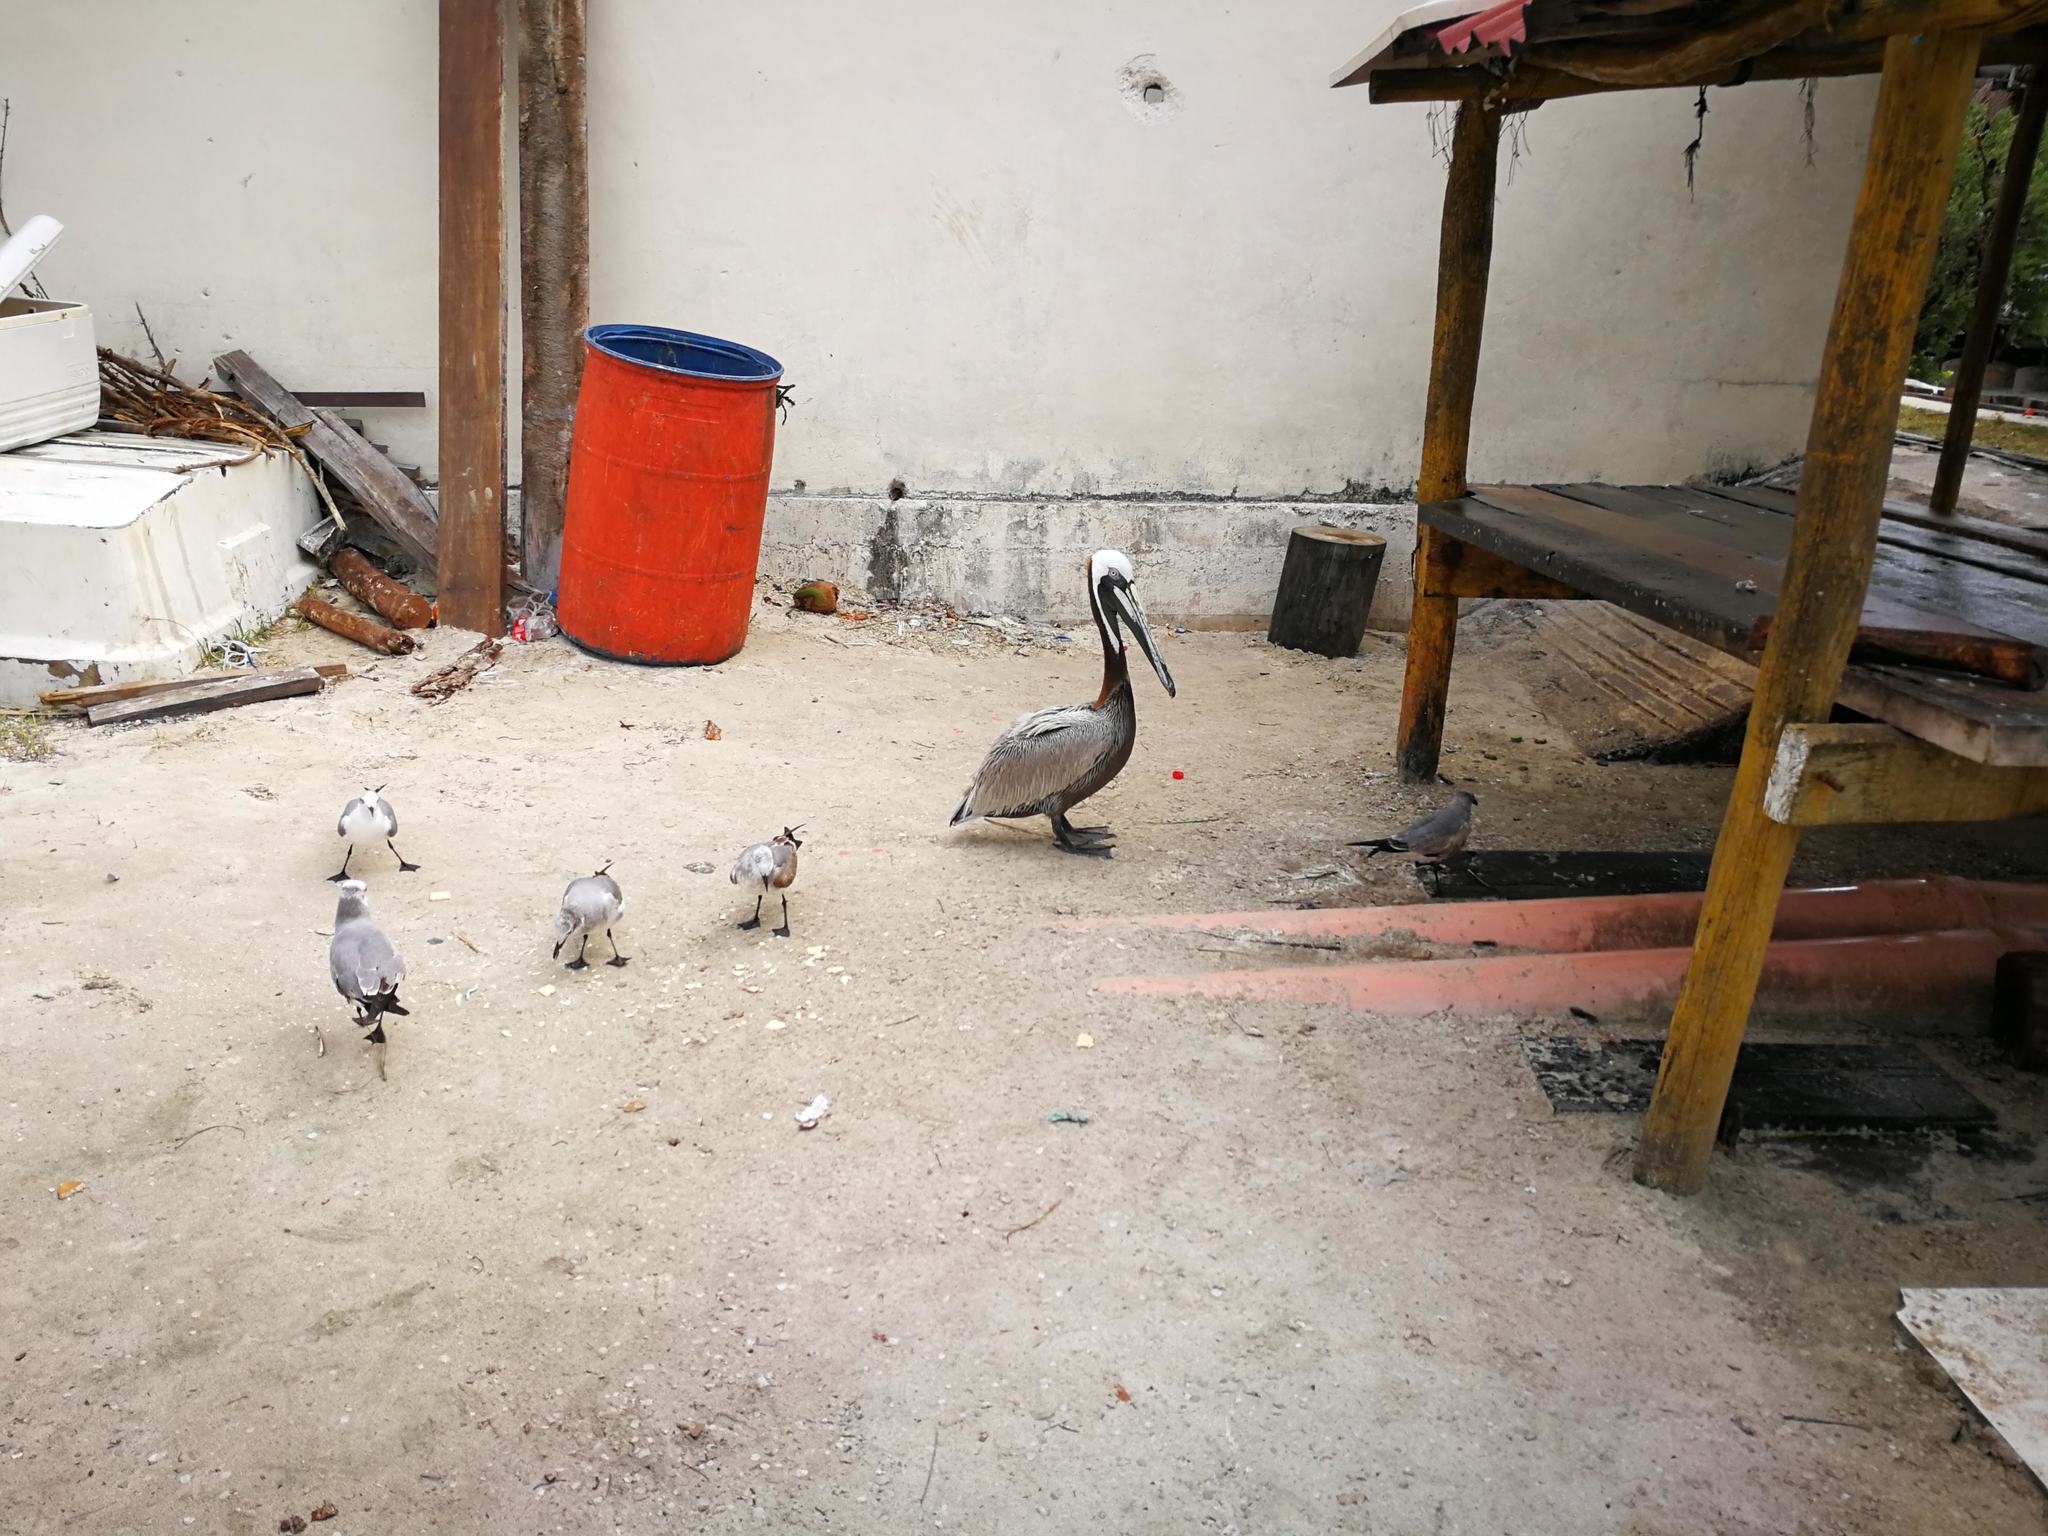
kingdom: Animalia
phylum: Chordata
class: Aves
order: Pelecaniformes
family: Pelecanidae
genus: Pelecanus
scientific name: Pelecanus occidentalis
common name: Brown pelican
